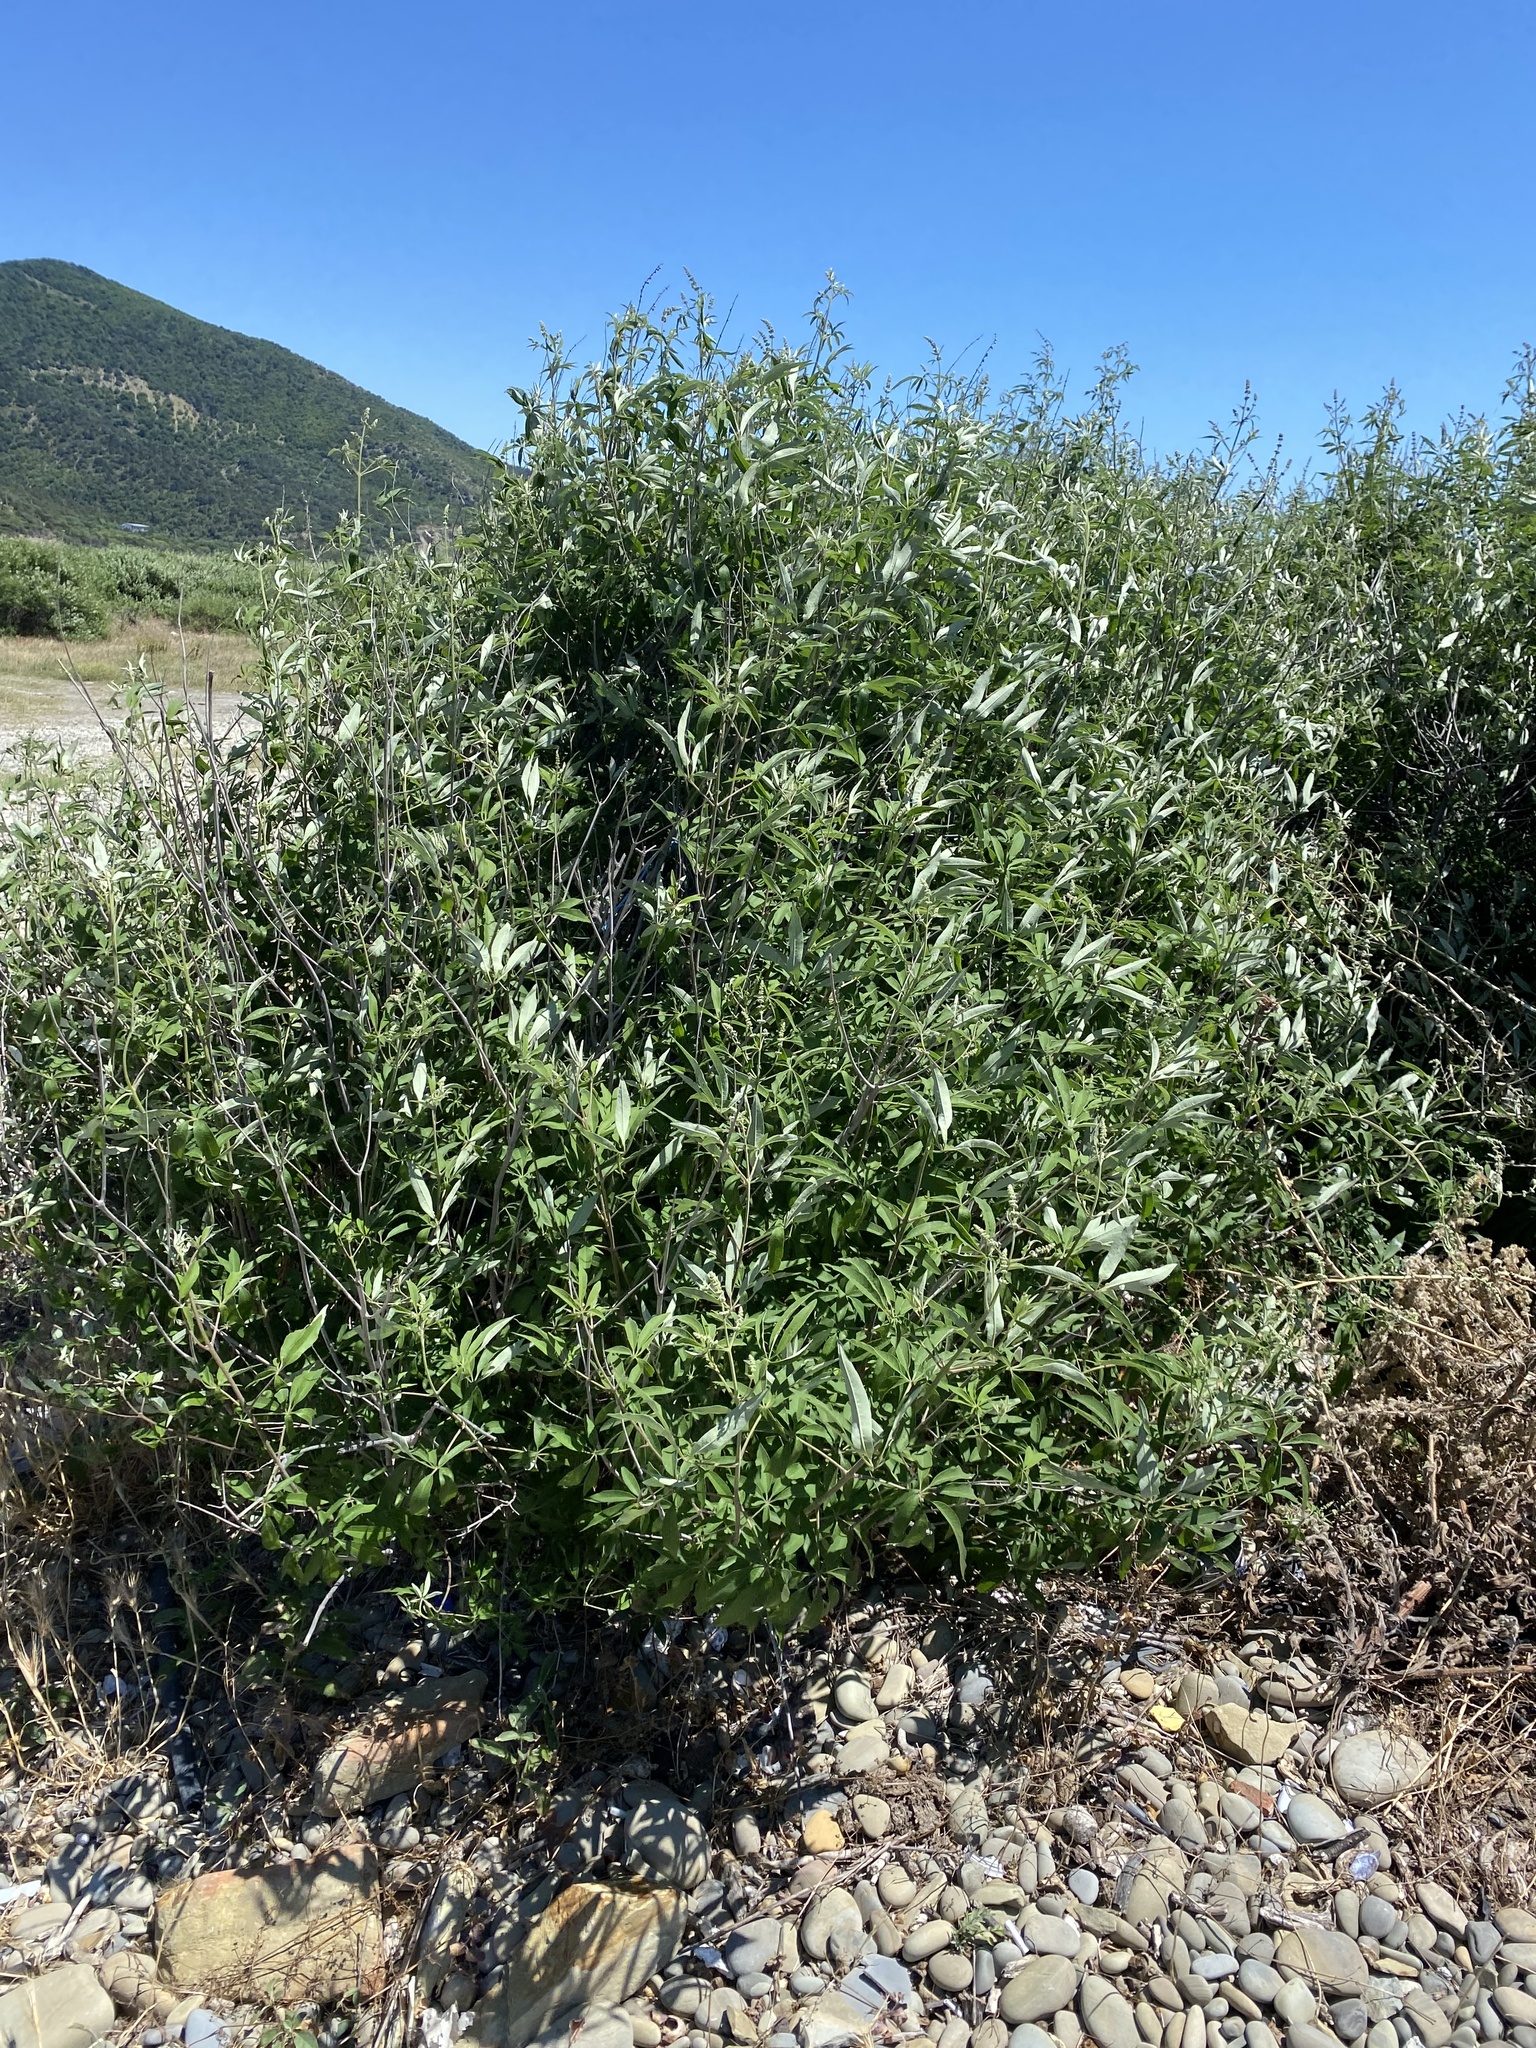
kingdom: Plantae
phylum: Tracheophyta
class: Magnoliopsida
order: Lamiales
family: Lamiaceae
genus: Vitex
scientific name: Vitex agnus-castus
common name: Chasteberry
